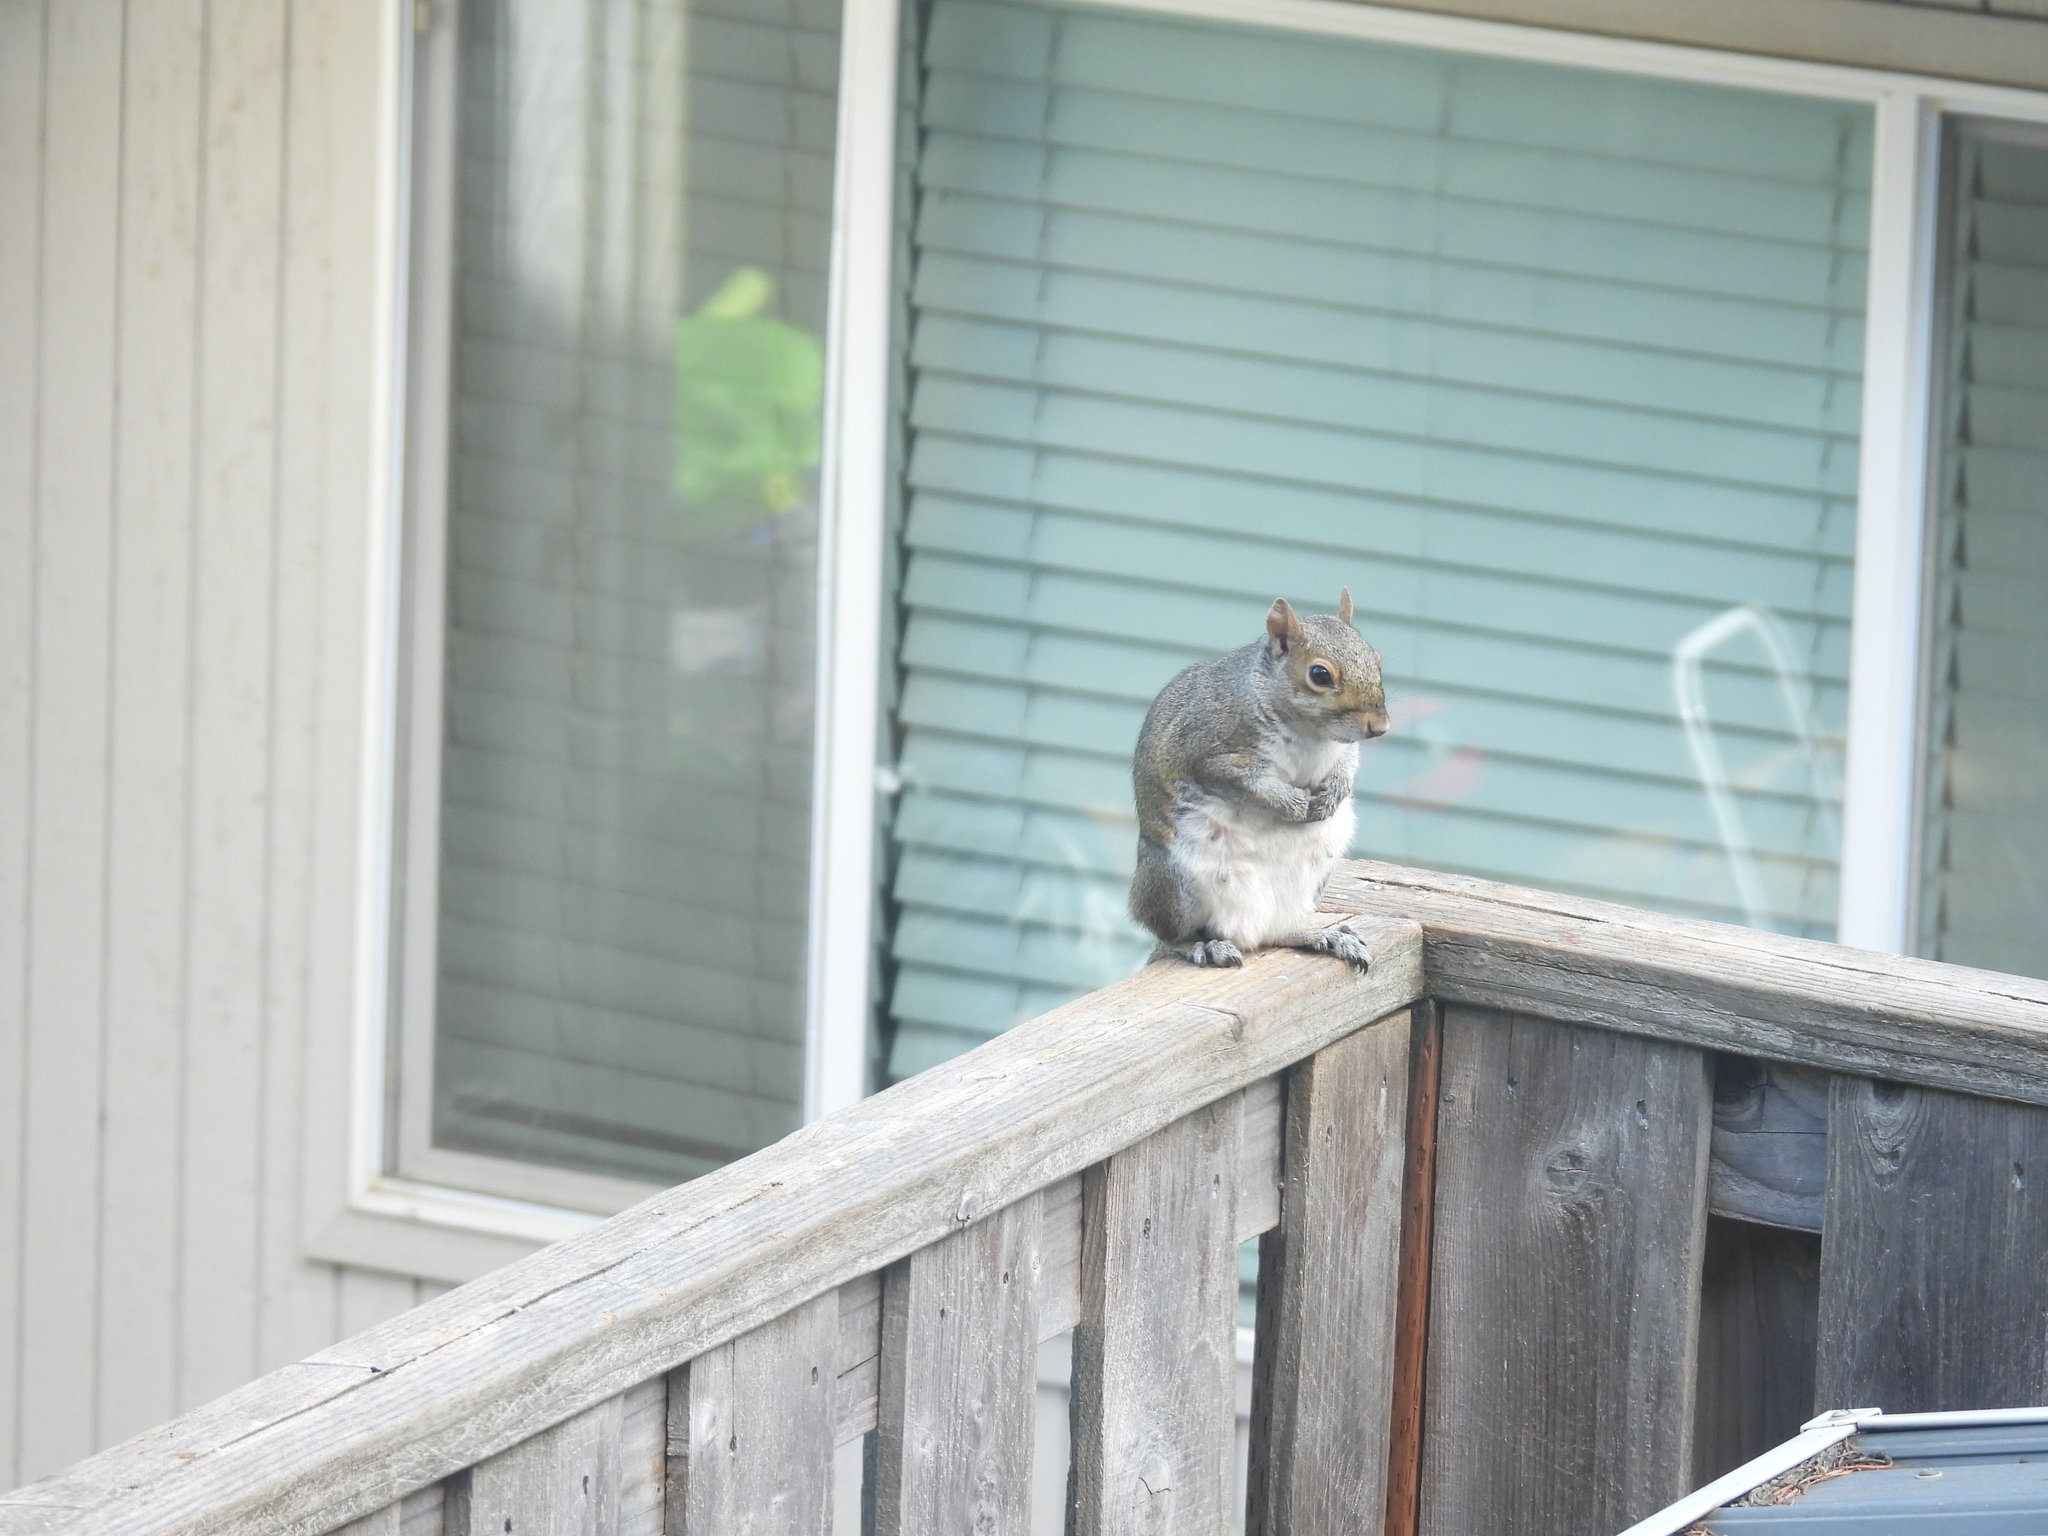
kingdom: Animalia
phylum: Chordata
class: Mammalia
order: Rodentia
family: Sciuridae
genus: Sciurus
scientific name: Sciurus carolinensis
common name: Eastern gray squirrel
